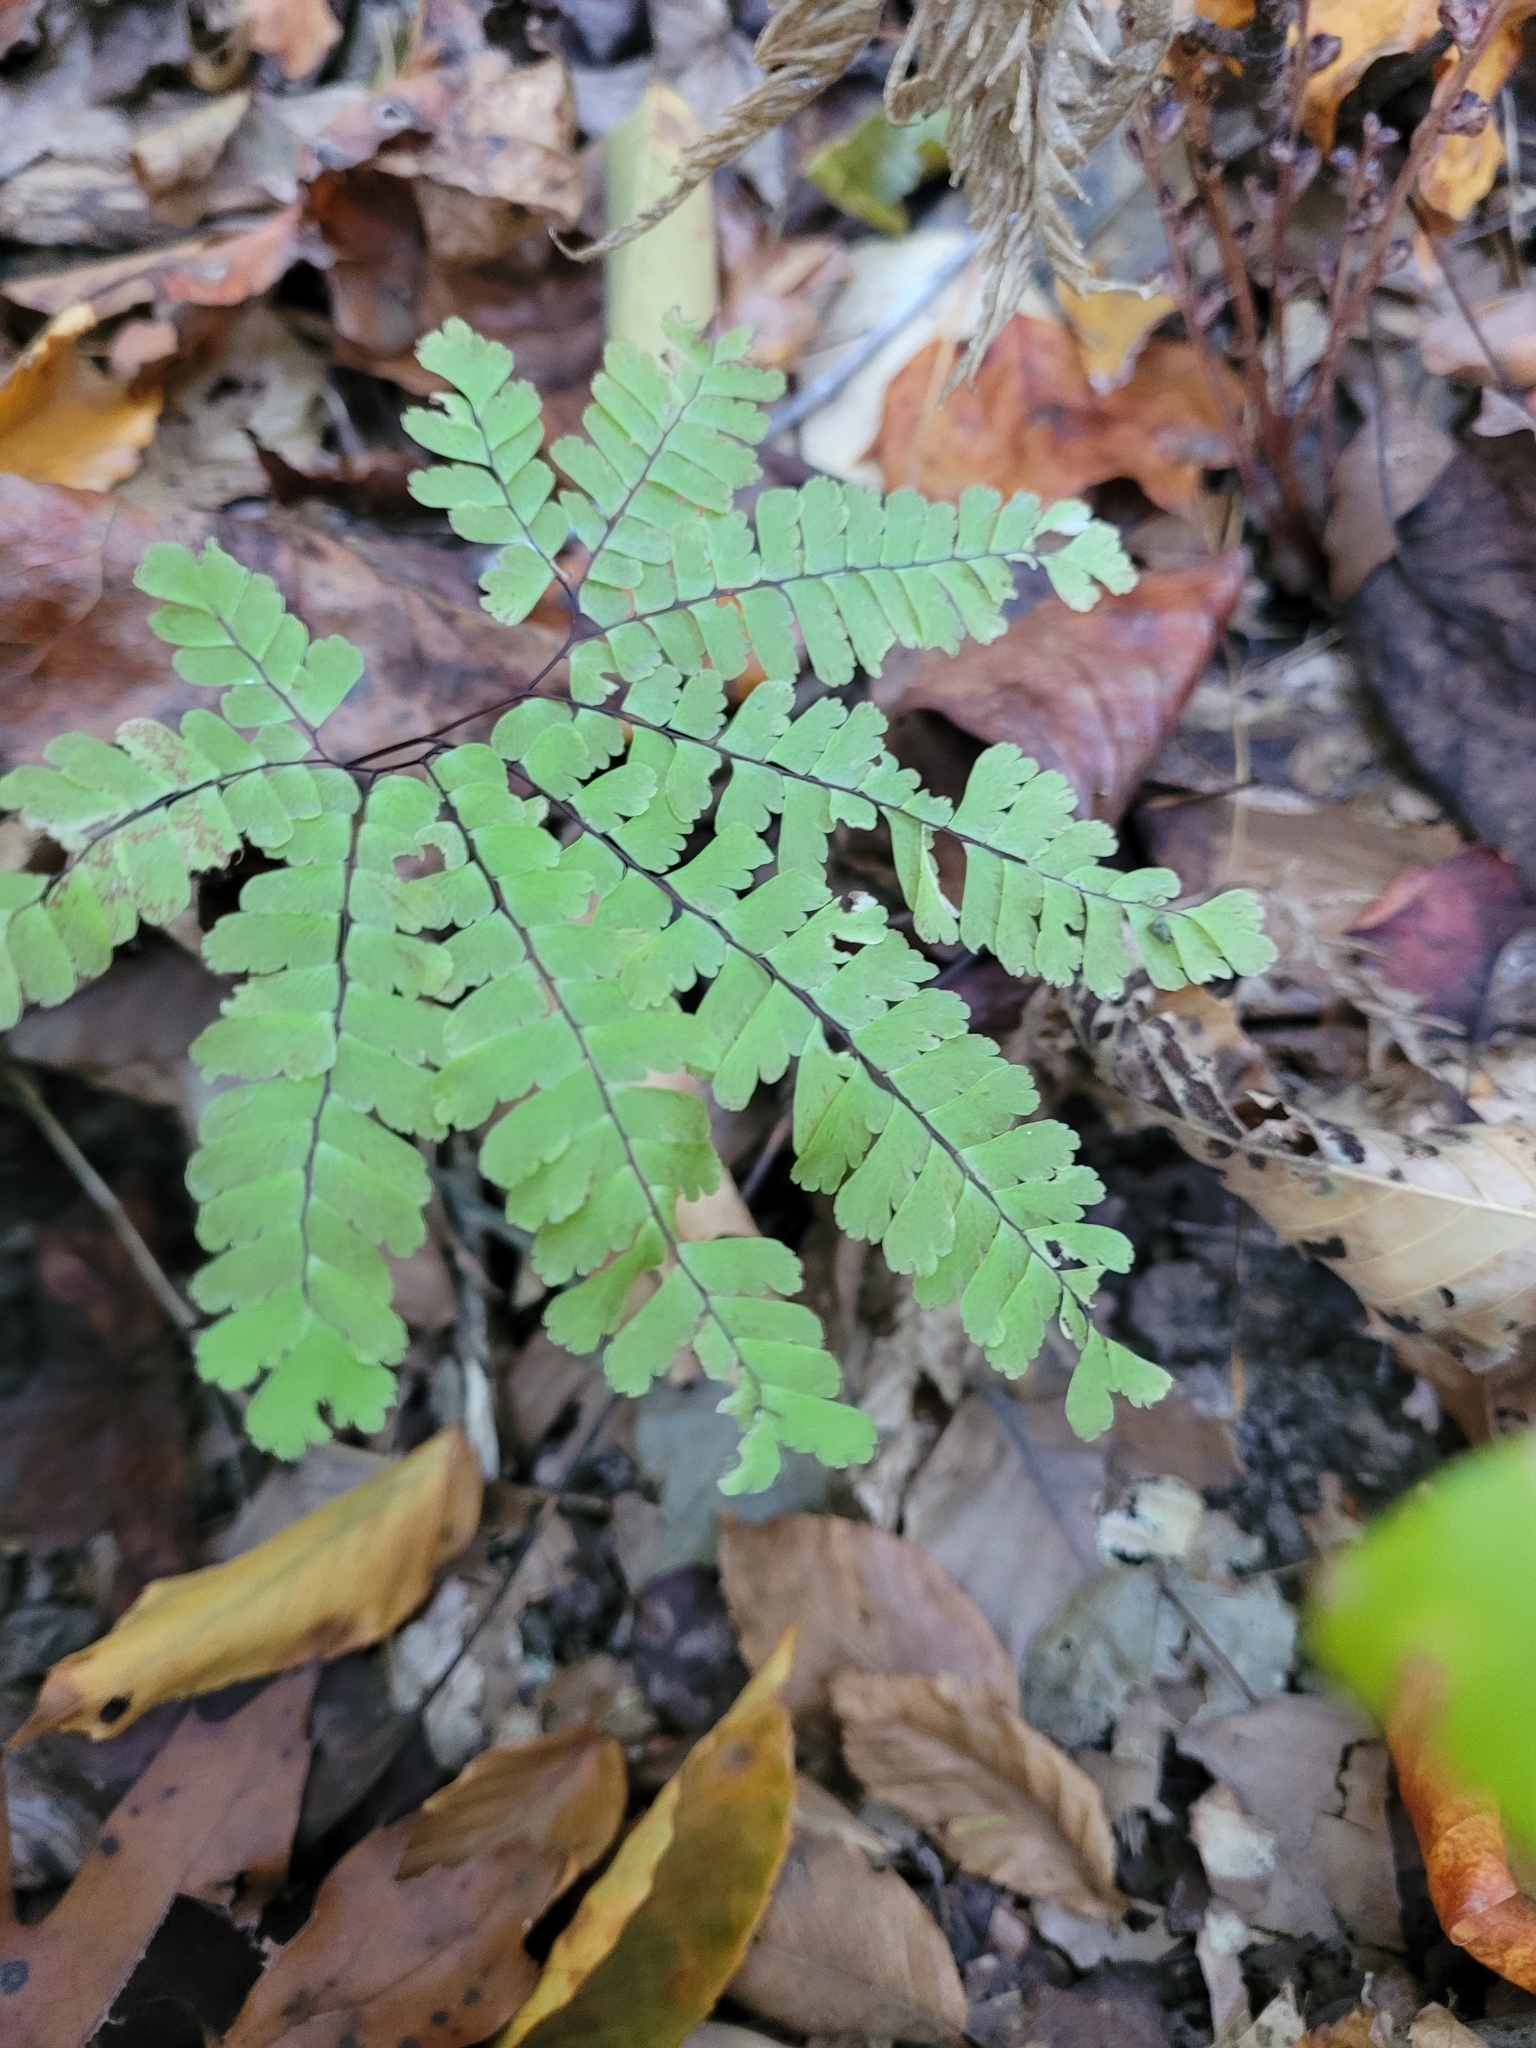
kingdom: Plantae
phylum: Tracheophyta
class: Polypodiopsida
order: Polypodiales
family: Pteridaceae
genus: Adiantum
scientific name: Adiantum pedatum
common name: Five-finger fern
